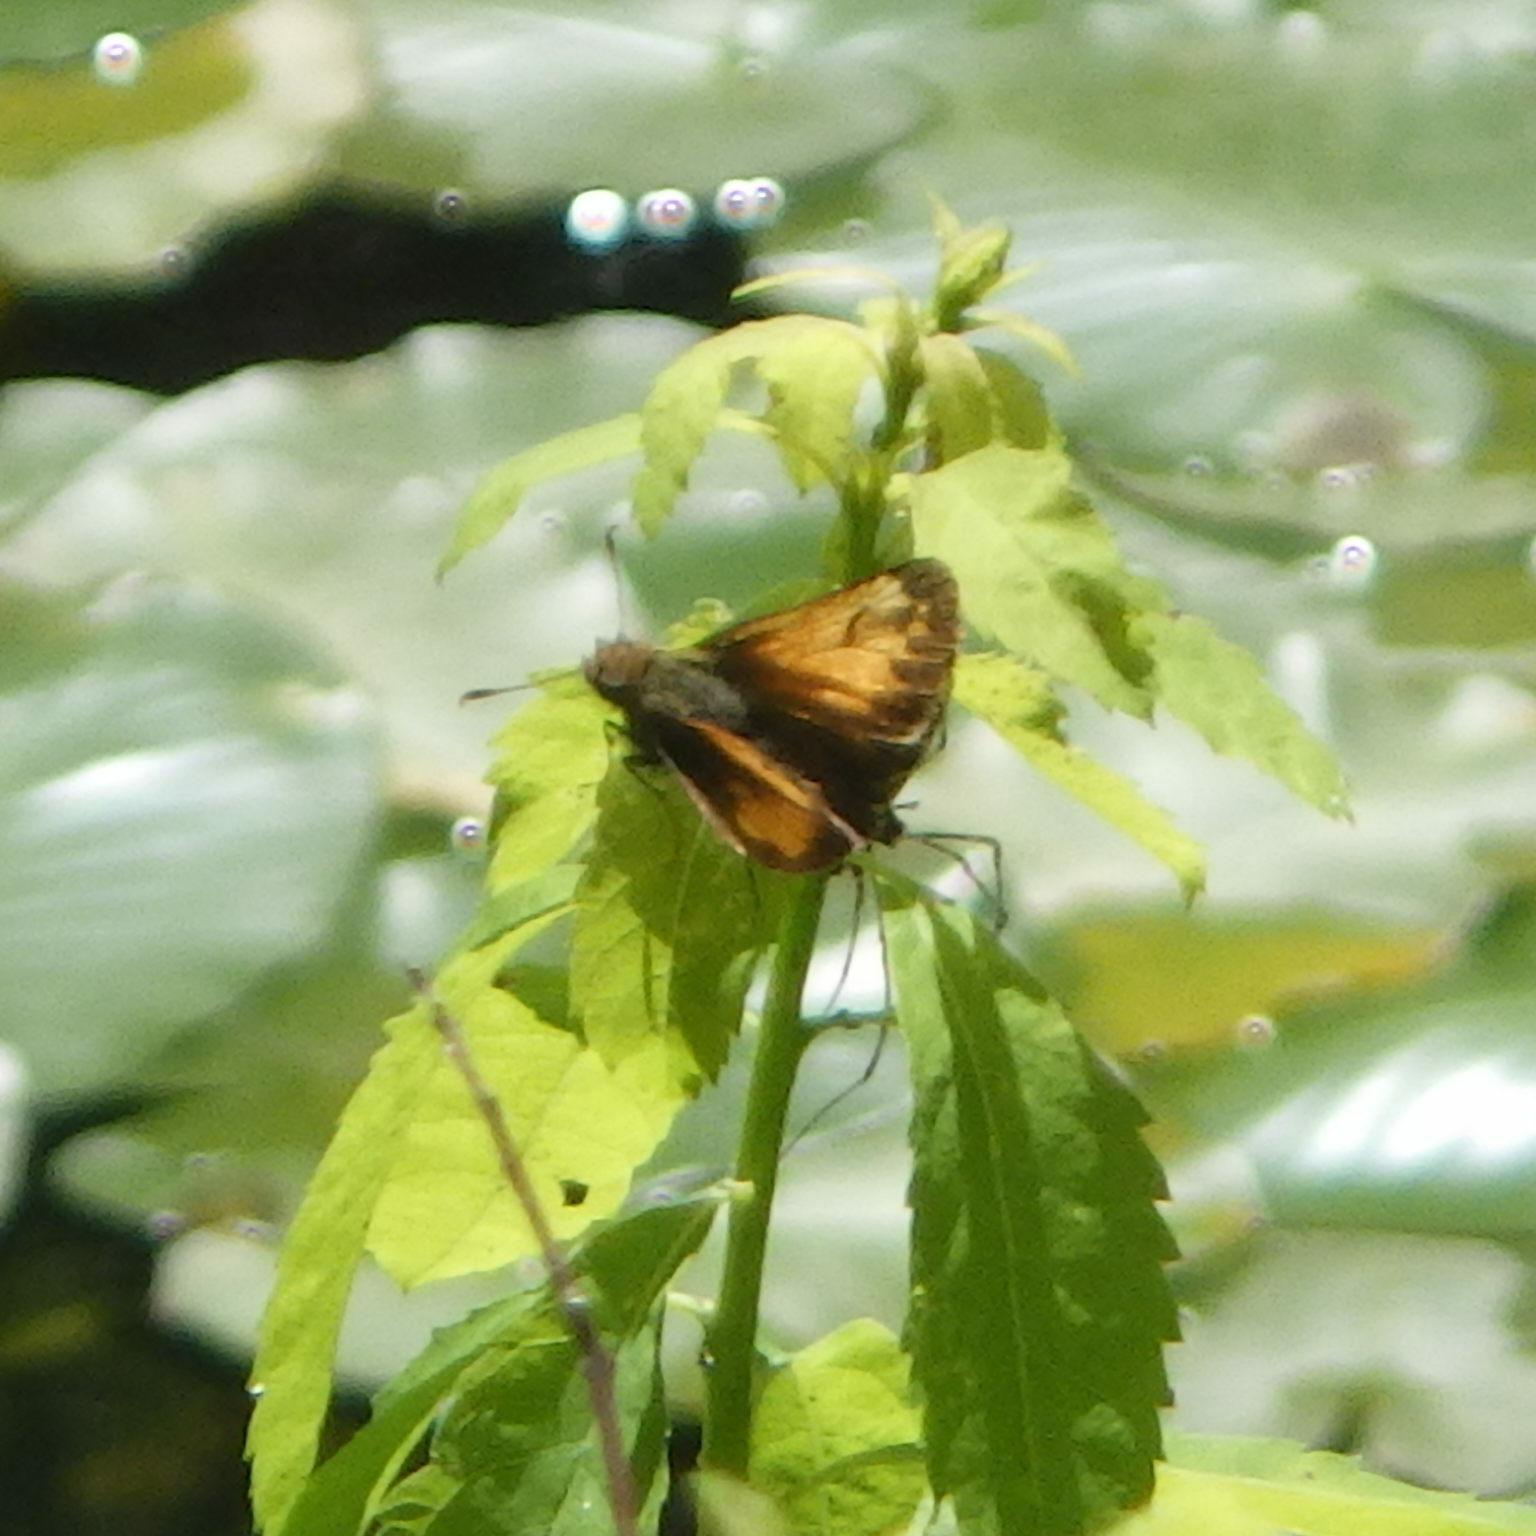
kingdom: Animalia
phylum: Arthropoda
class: Insecta
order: Lepidoptera
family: Hesperiidae
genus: Lon
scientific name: Lon hobomok
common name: Hobomok skipper
